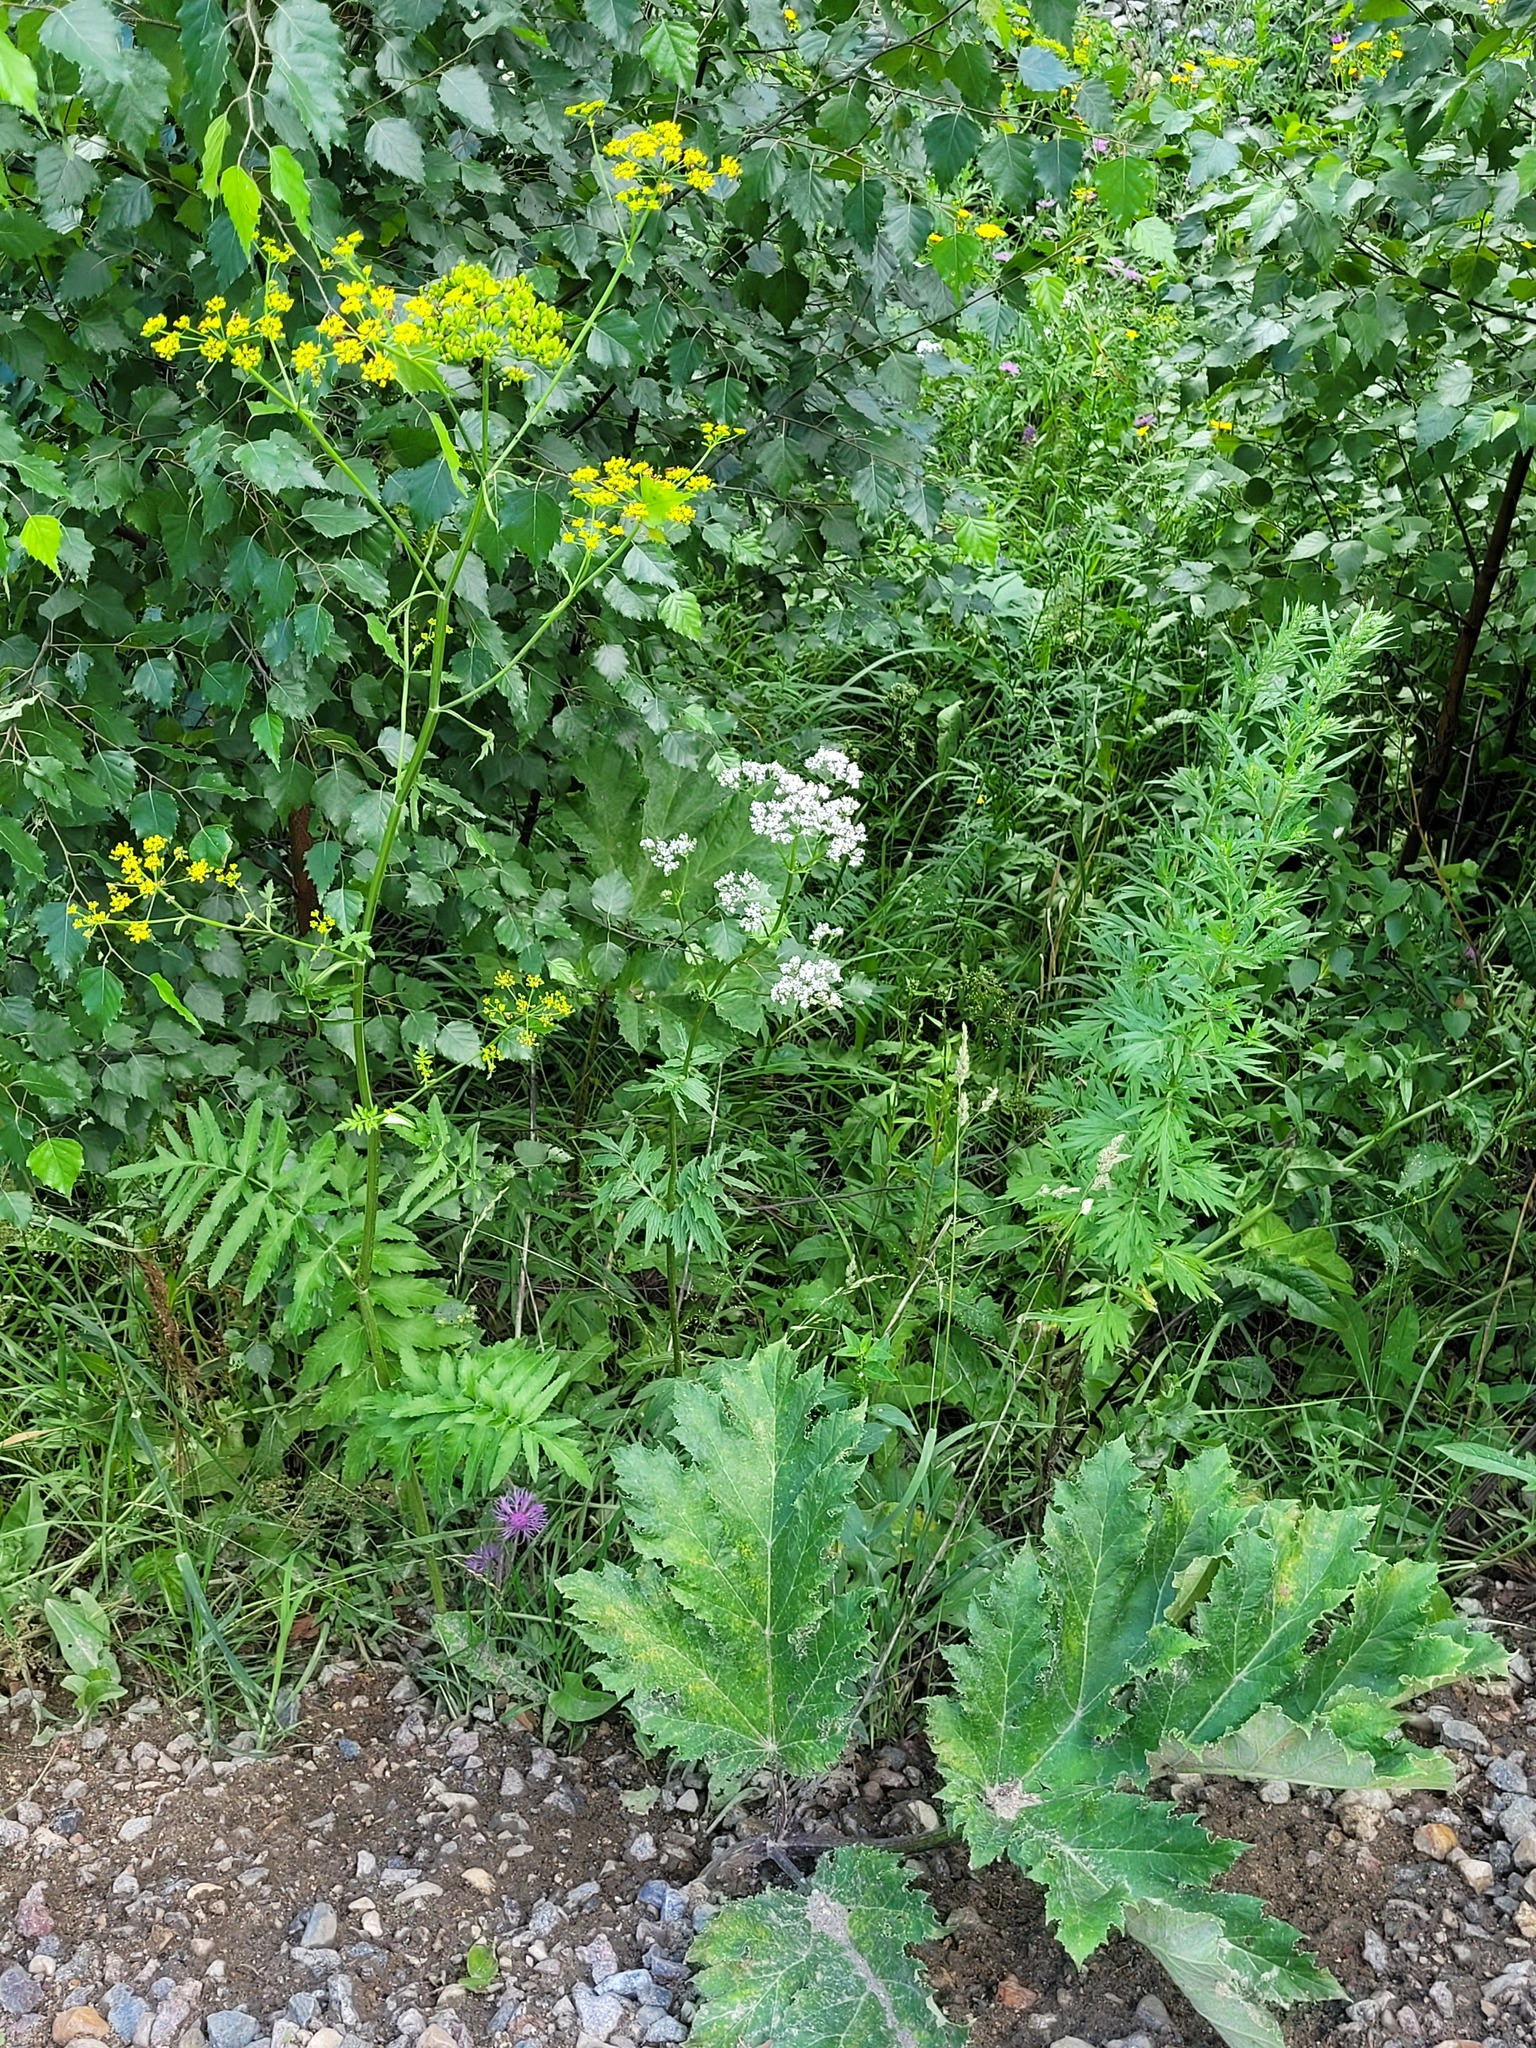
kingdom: Plantae
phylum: Tracheophyta
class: Magnoliopsida
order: Dipsacales
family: Caprifoliaceae
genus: Valeriana
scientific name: Valeriana officinalis
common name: Common valerian
